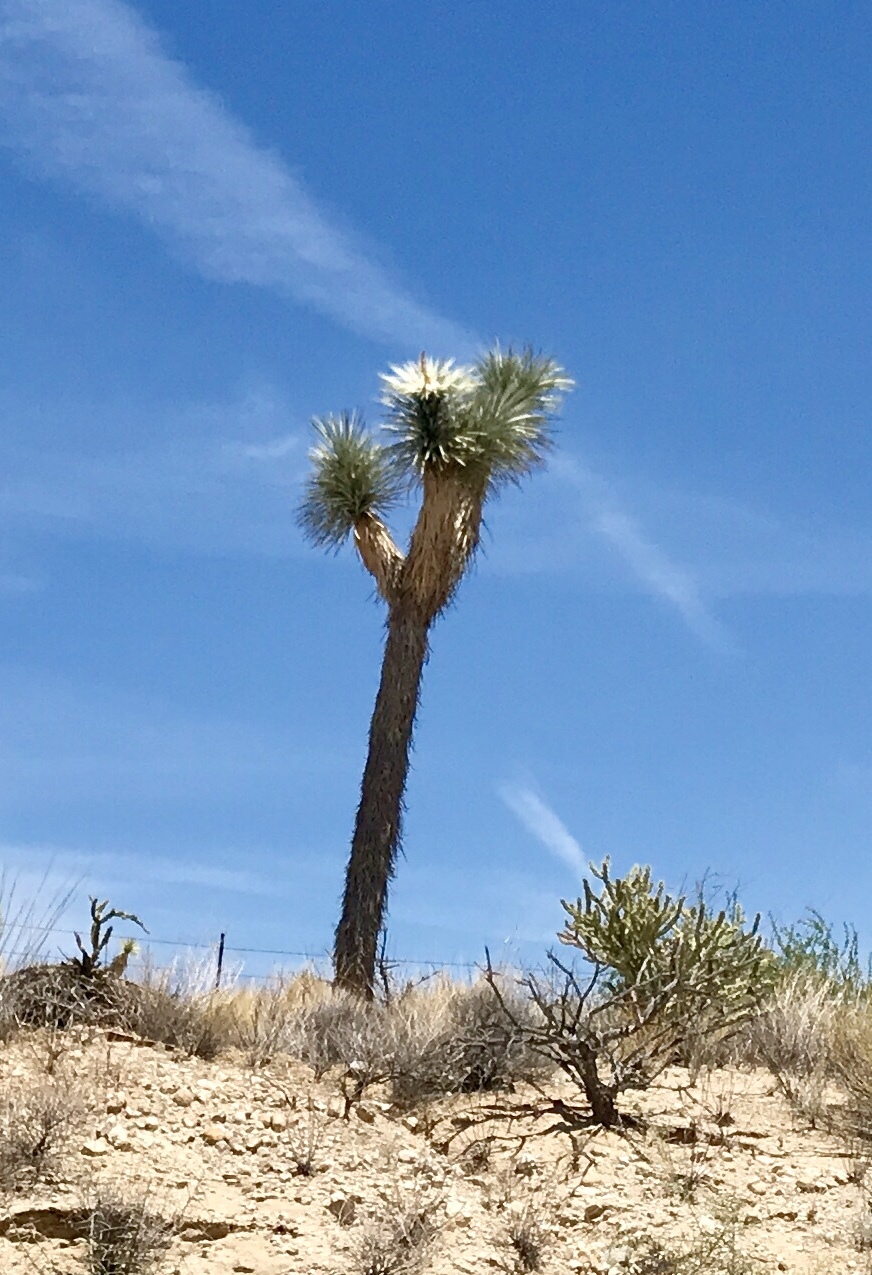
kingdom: Plantae
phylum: Tracheophyta
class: Liliopsida
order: Asparagales
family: Asparagaceae
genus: Yucca
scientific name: Yucca brevifolia
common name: Joshua tree
